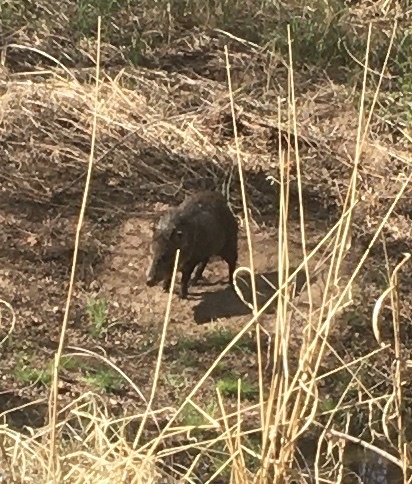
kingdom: Animalia
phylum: Chordata
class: Mammalia
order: Artiodactyla
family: Tayassuidae
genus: Pecari
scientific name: Pecari tajacu
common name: Collared peccary
